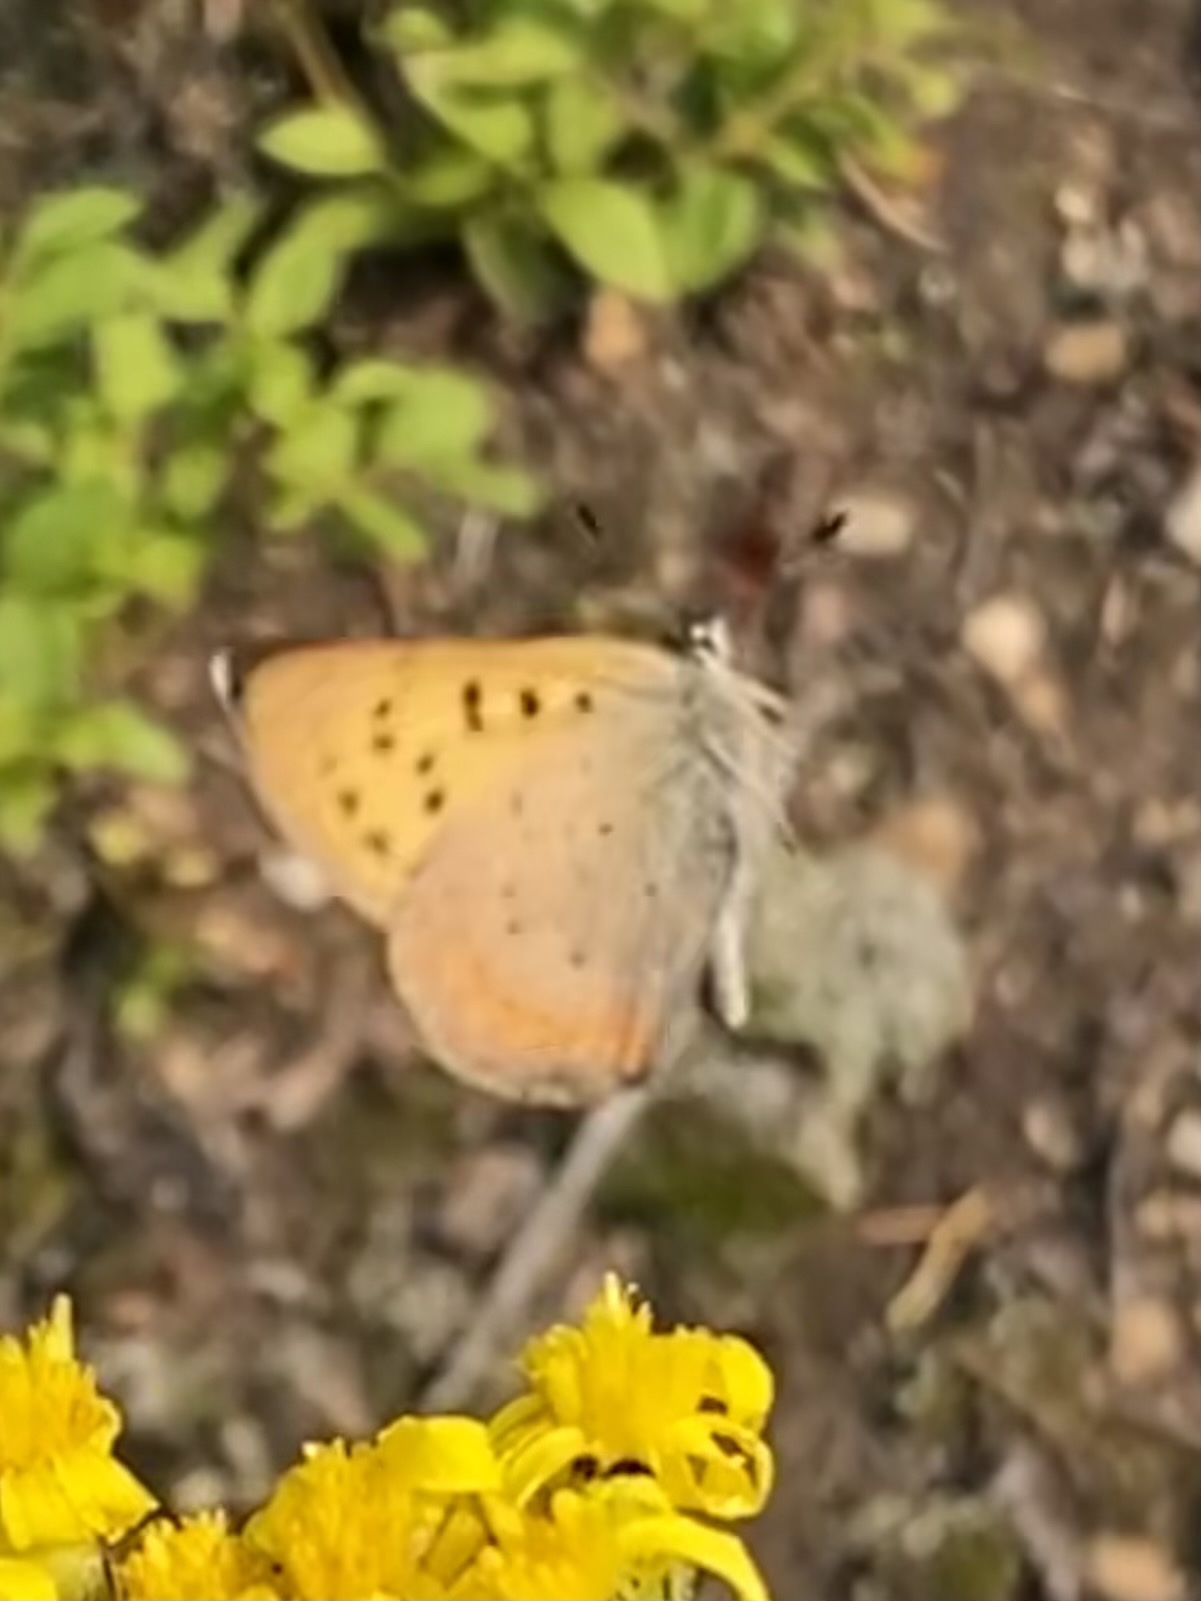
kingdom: Animalia
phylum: Arthropoda
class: Insecta
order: Lepidoptera
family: Lycaenidae
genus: Tharsalea
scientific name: Tharsalea dorcas
